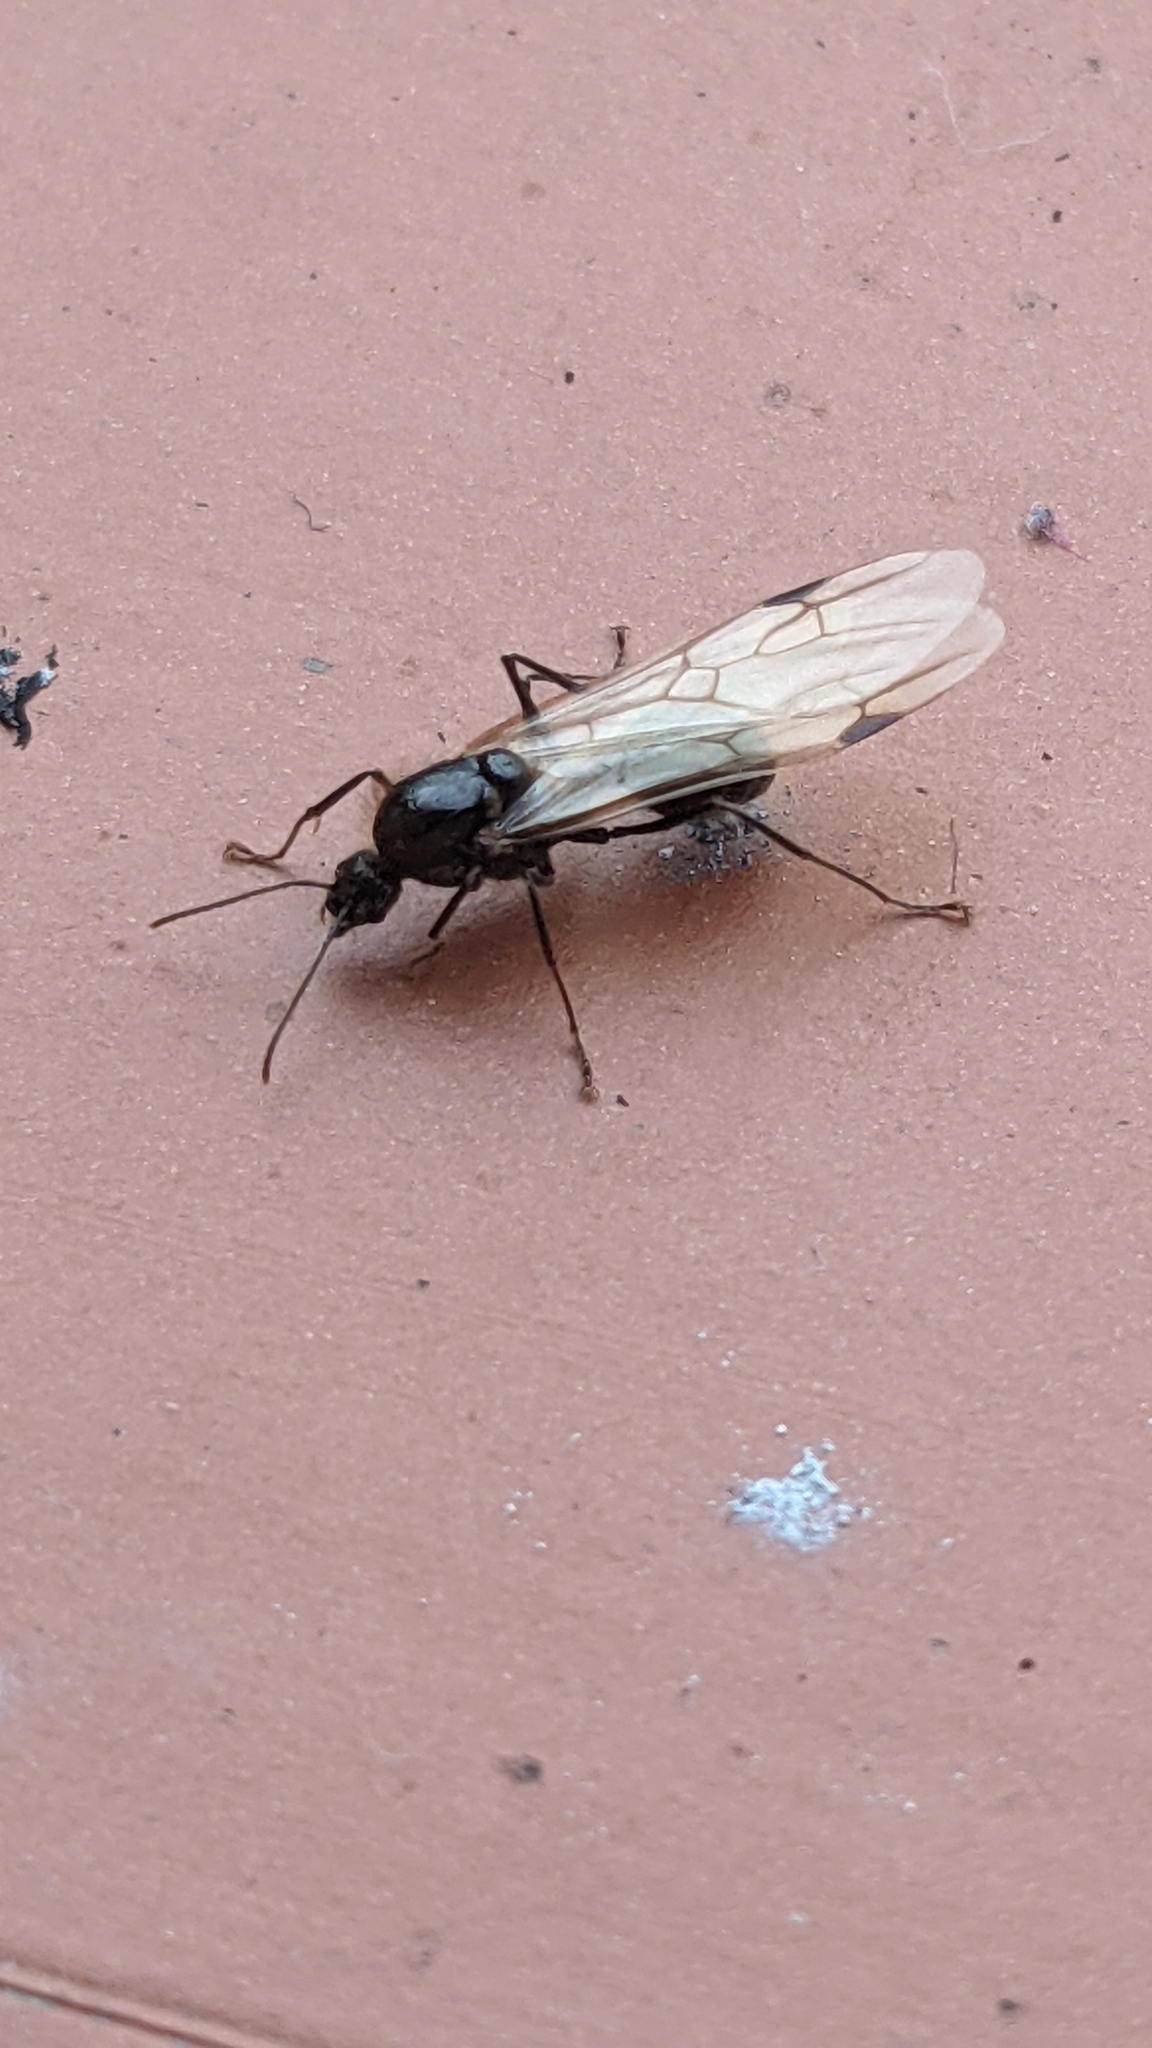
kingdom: Animalia
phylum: Arthropoda
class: Insecta
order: Hymenoptera
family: Formicidae
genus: Messor
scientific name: Messor
